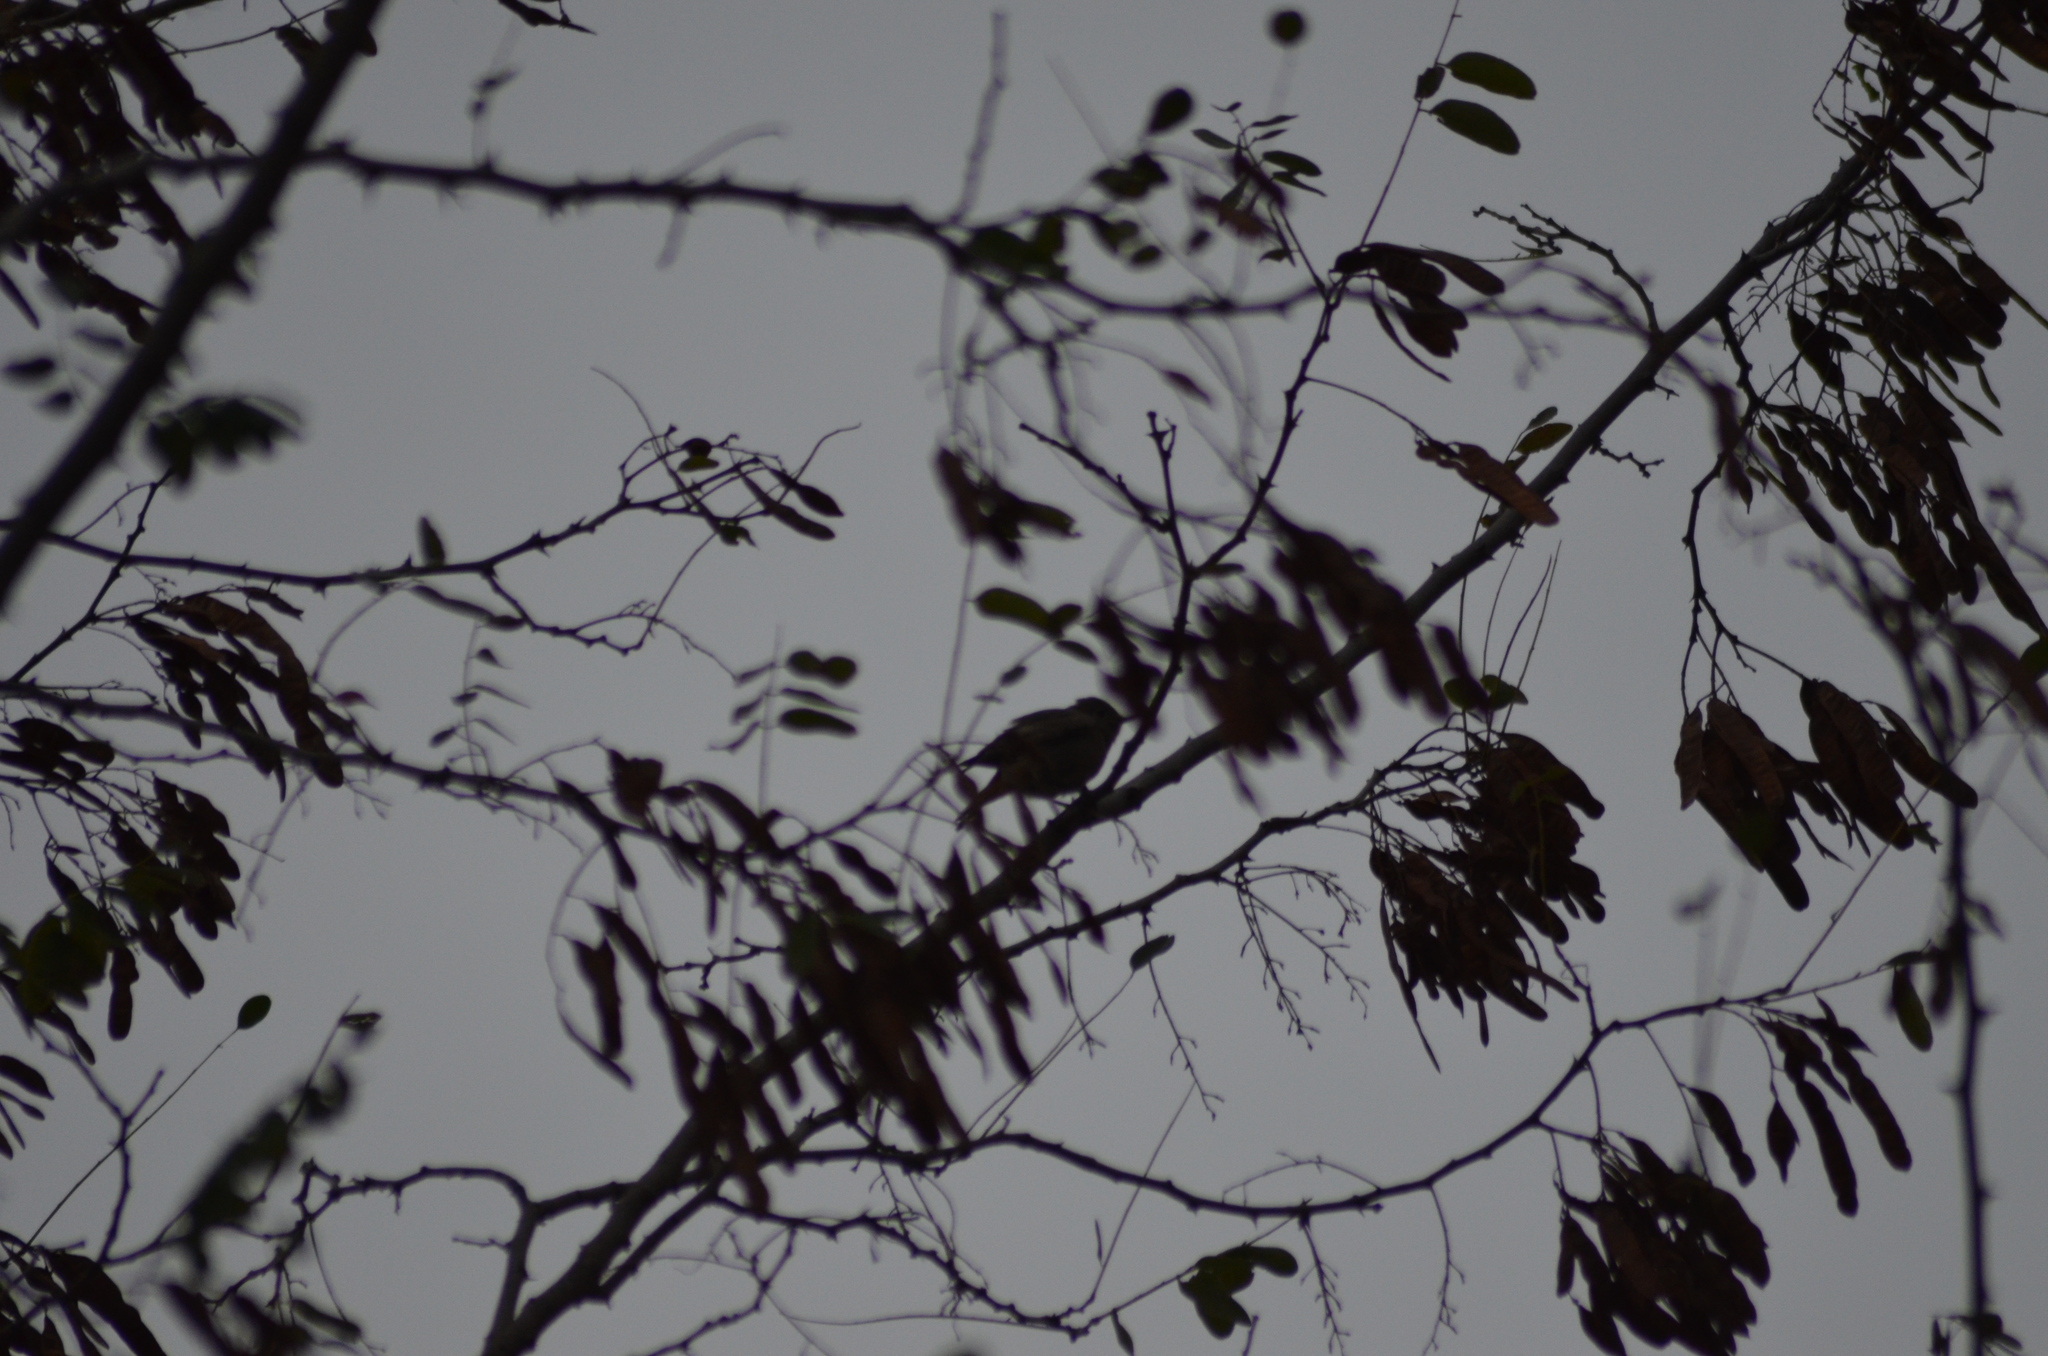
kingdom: Animalia
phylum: Chordata
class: Aves
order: Passeriformes
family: Muscicapidae
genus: Phoenicurus
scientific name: Phoenicurus ochruros
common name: Black redstart
